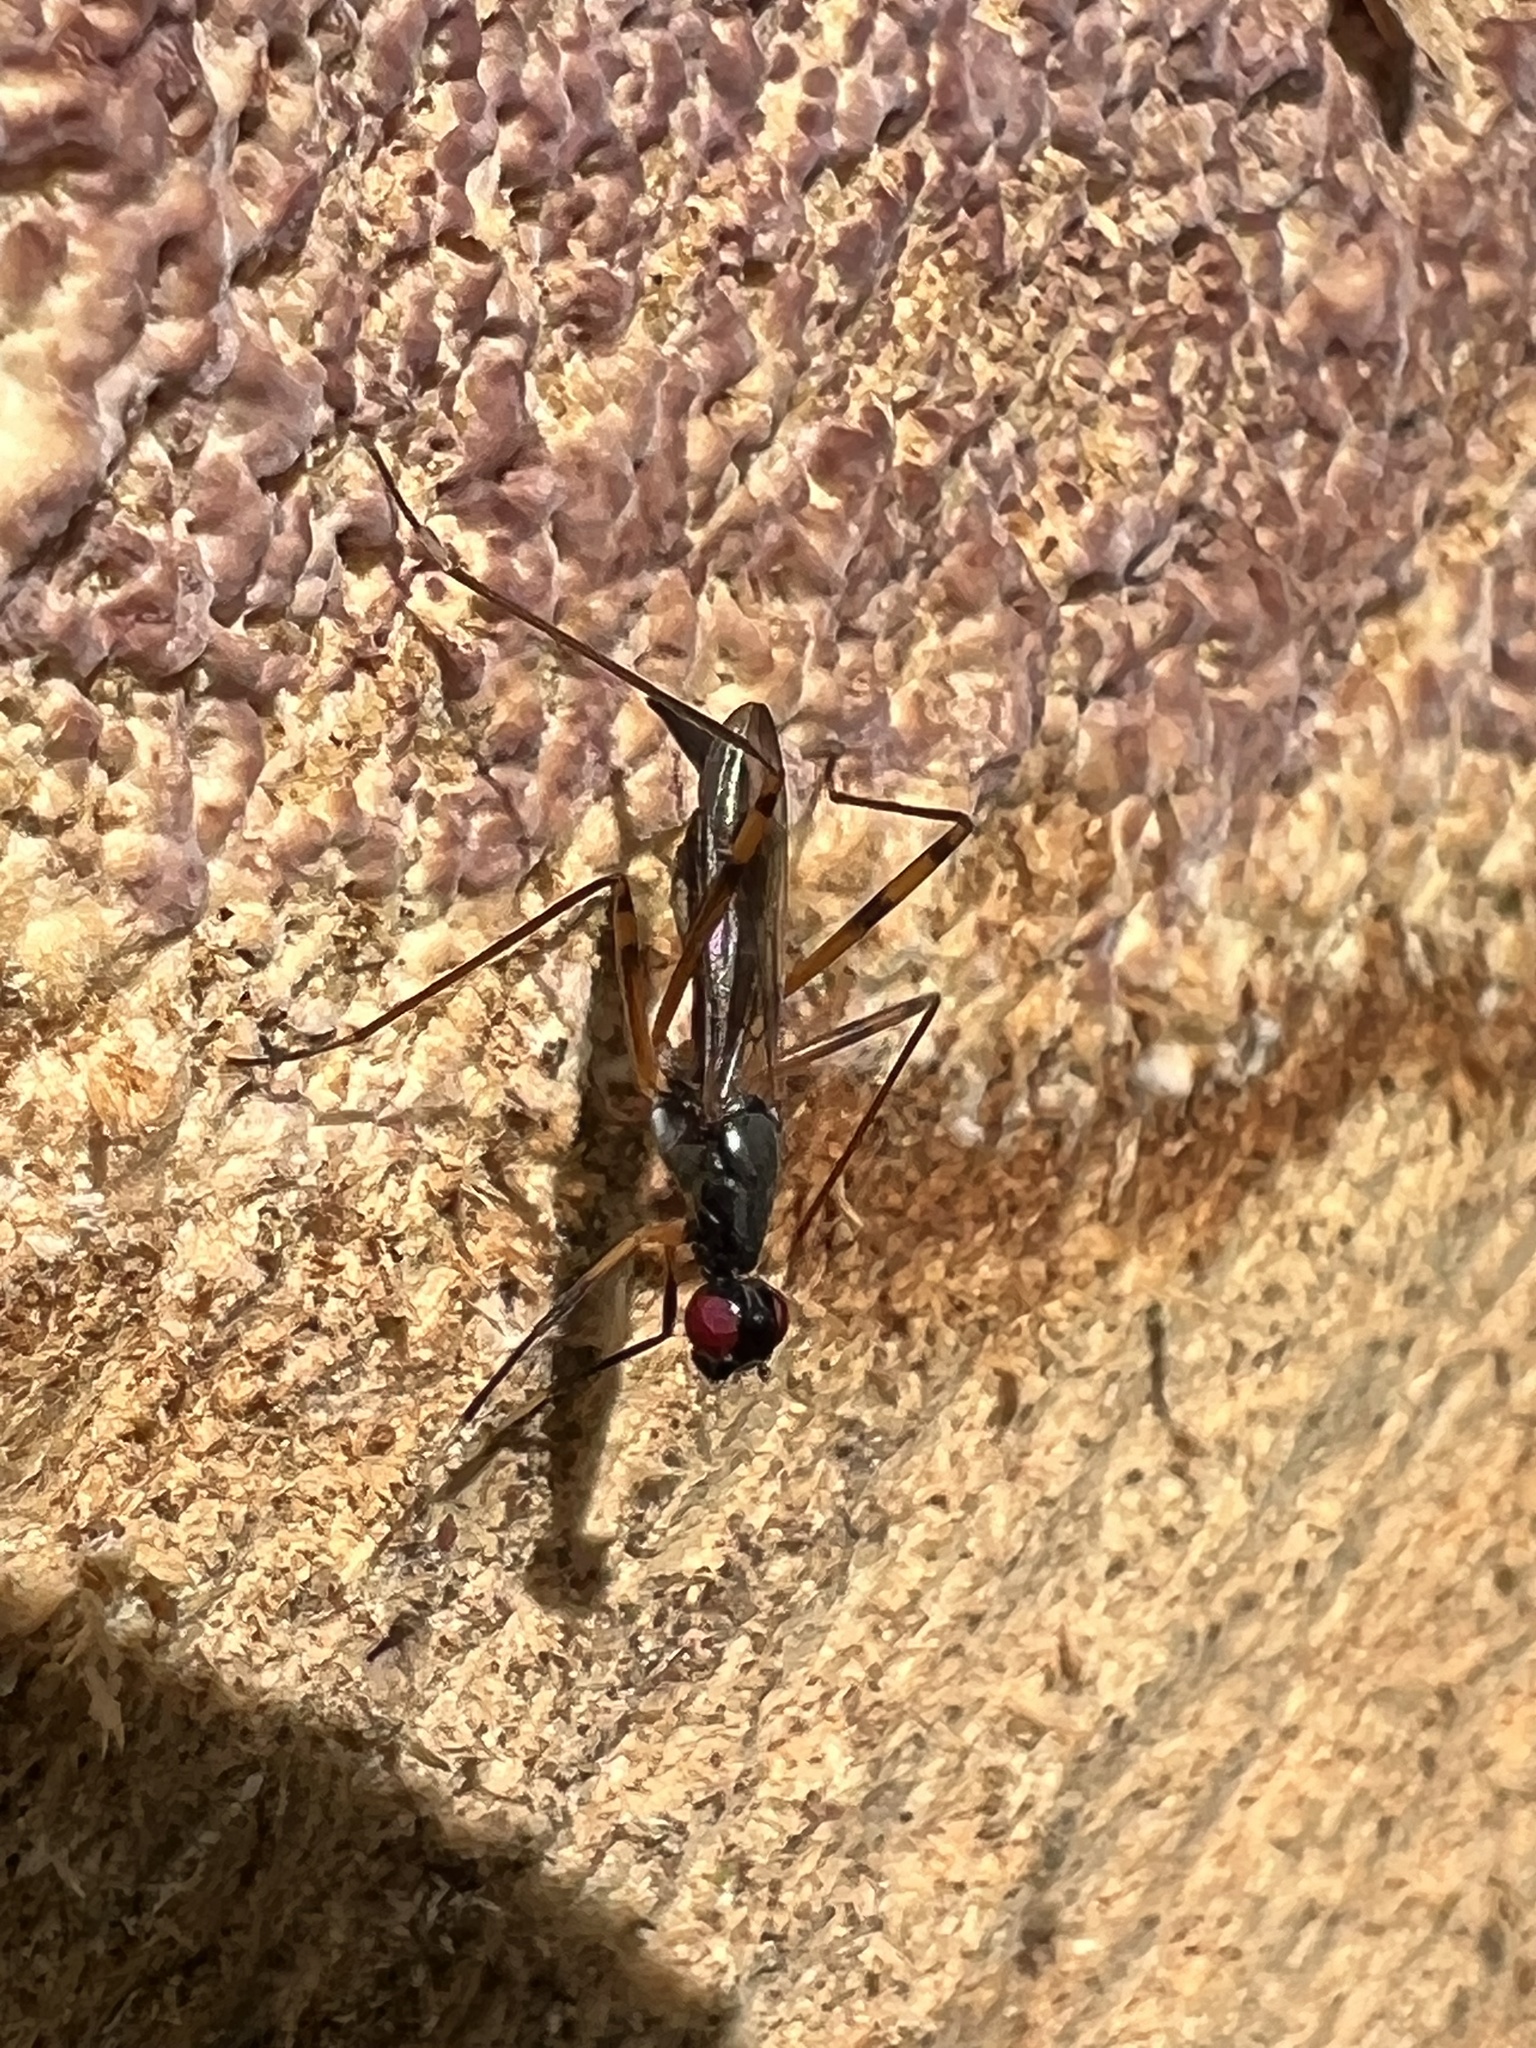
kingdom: Animalia
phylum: Arthropoda
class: Insecta
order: Diptera
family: Micropezidae
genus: Rainieria
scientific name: Rainieria antennaepes
